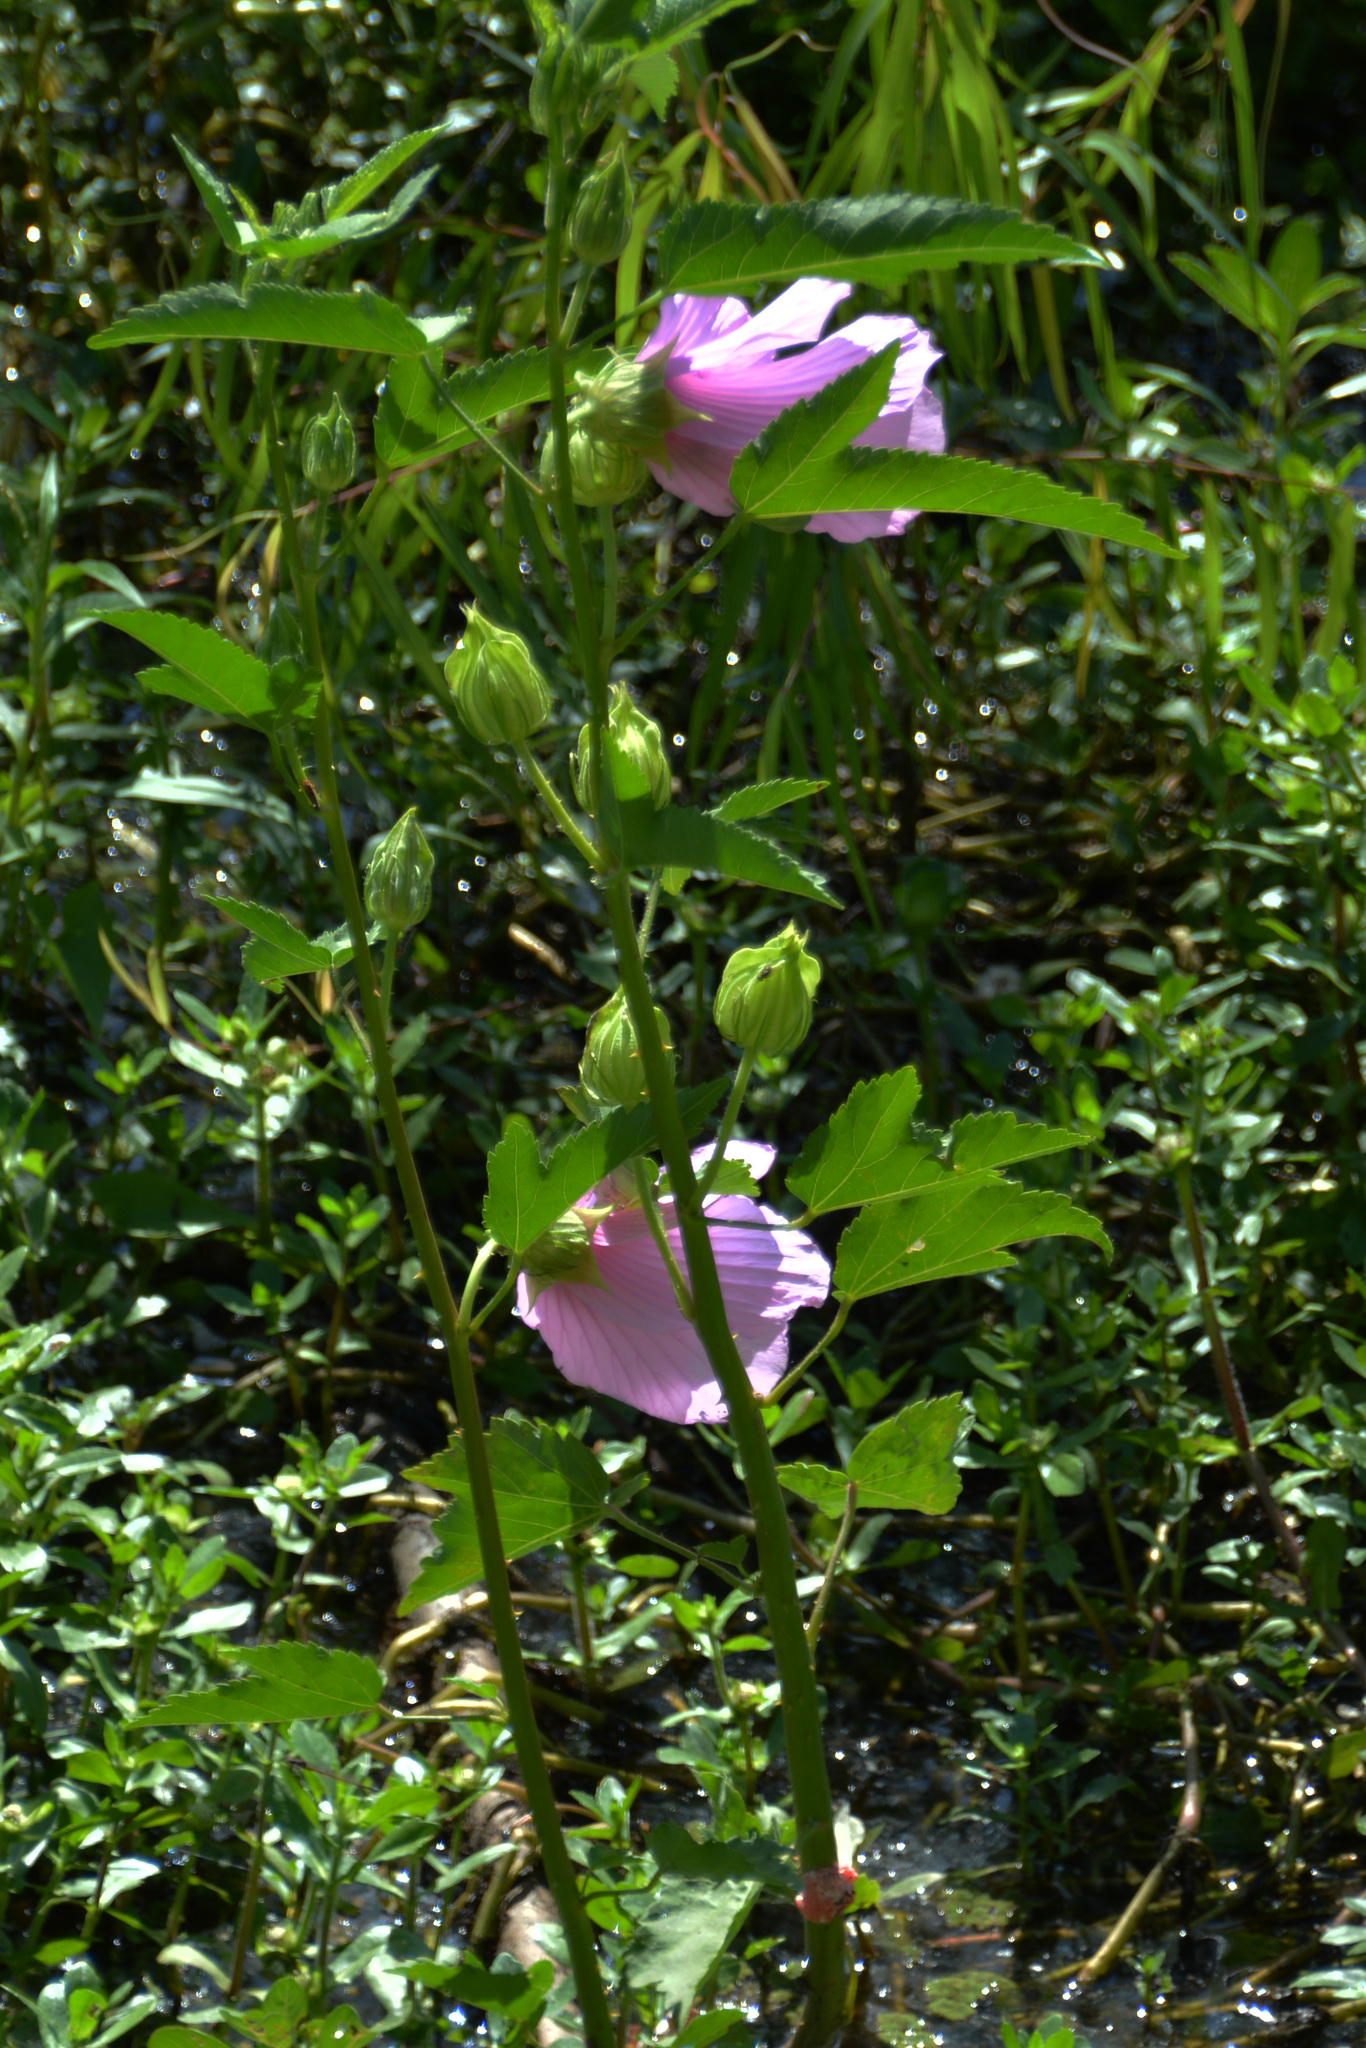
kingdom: Plantae
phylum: Tracheophyta
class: Magnoliopsida
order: Malvales
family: Malvaceae
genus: Hibiscus
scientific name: Hibiscus striatus
